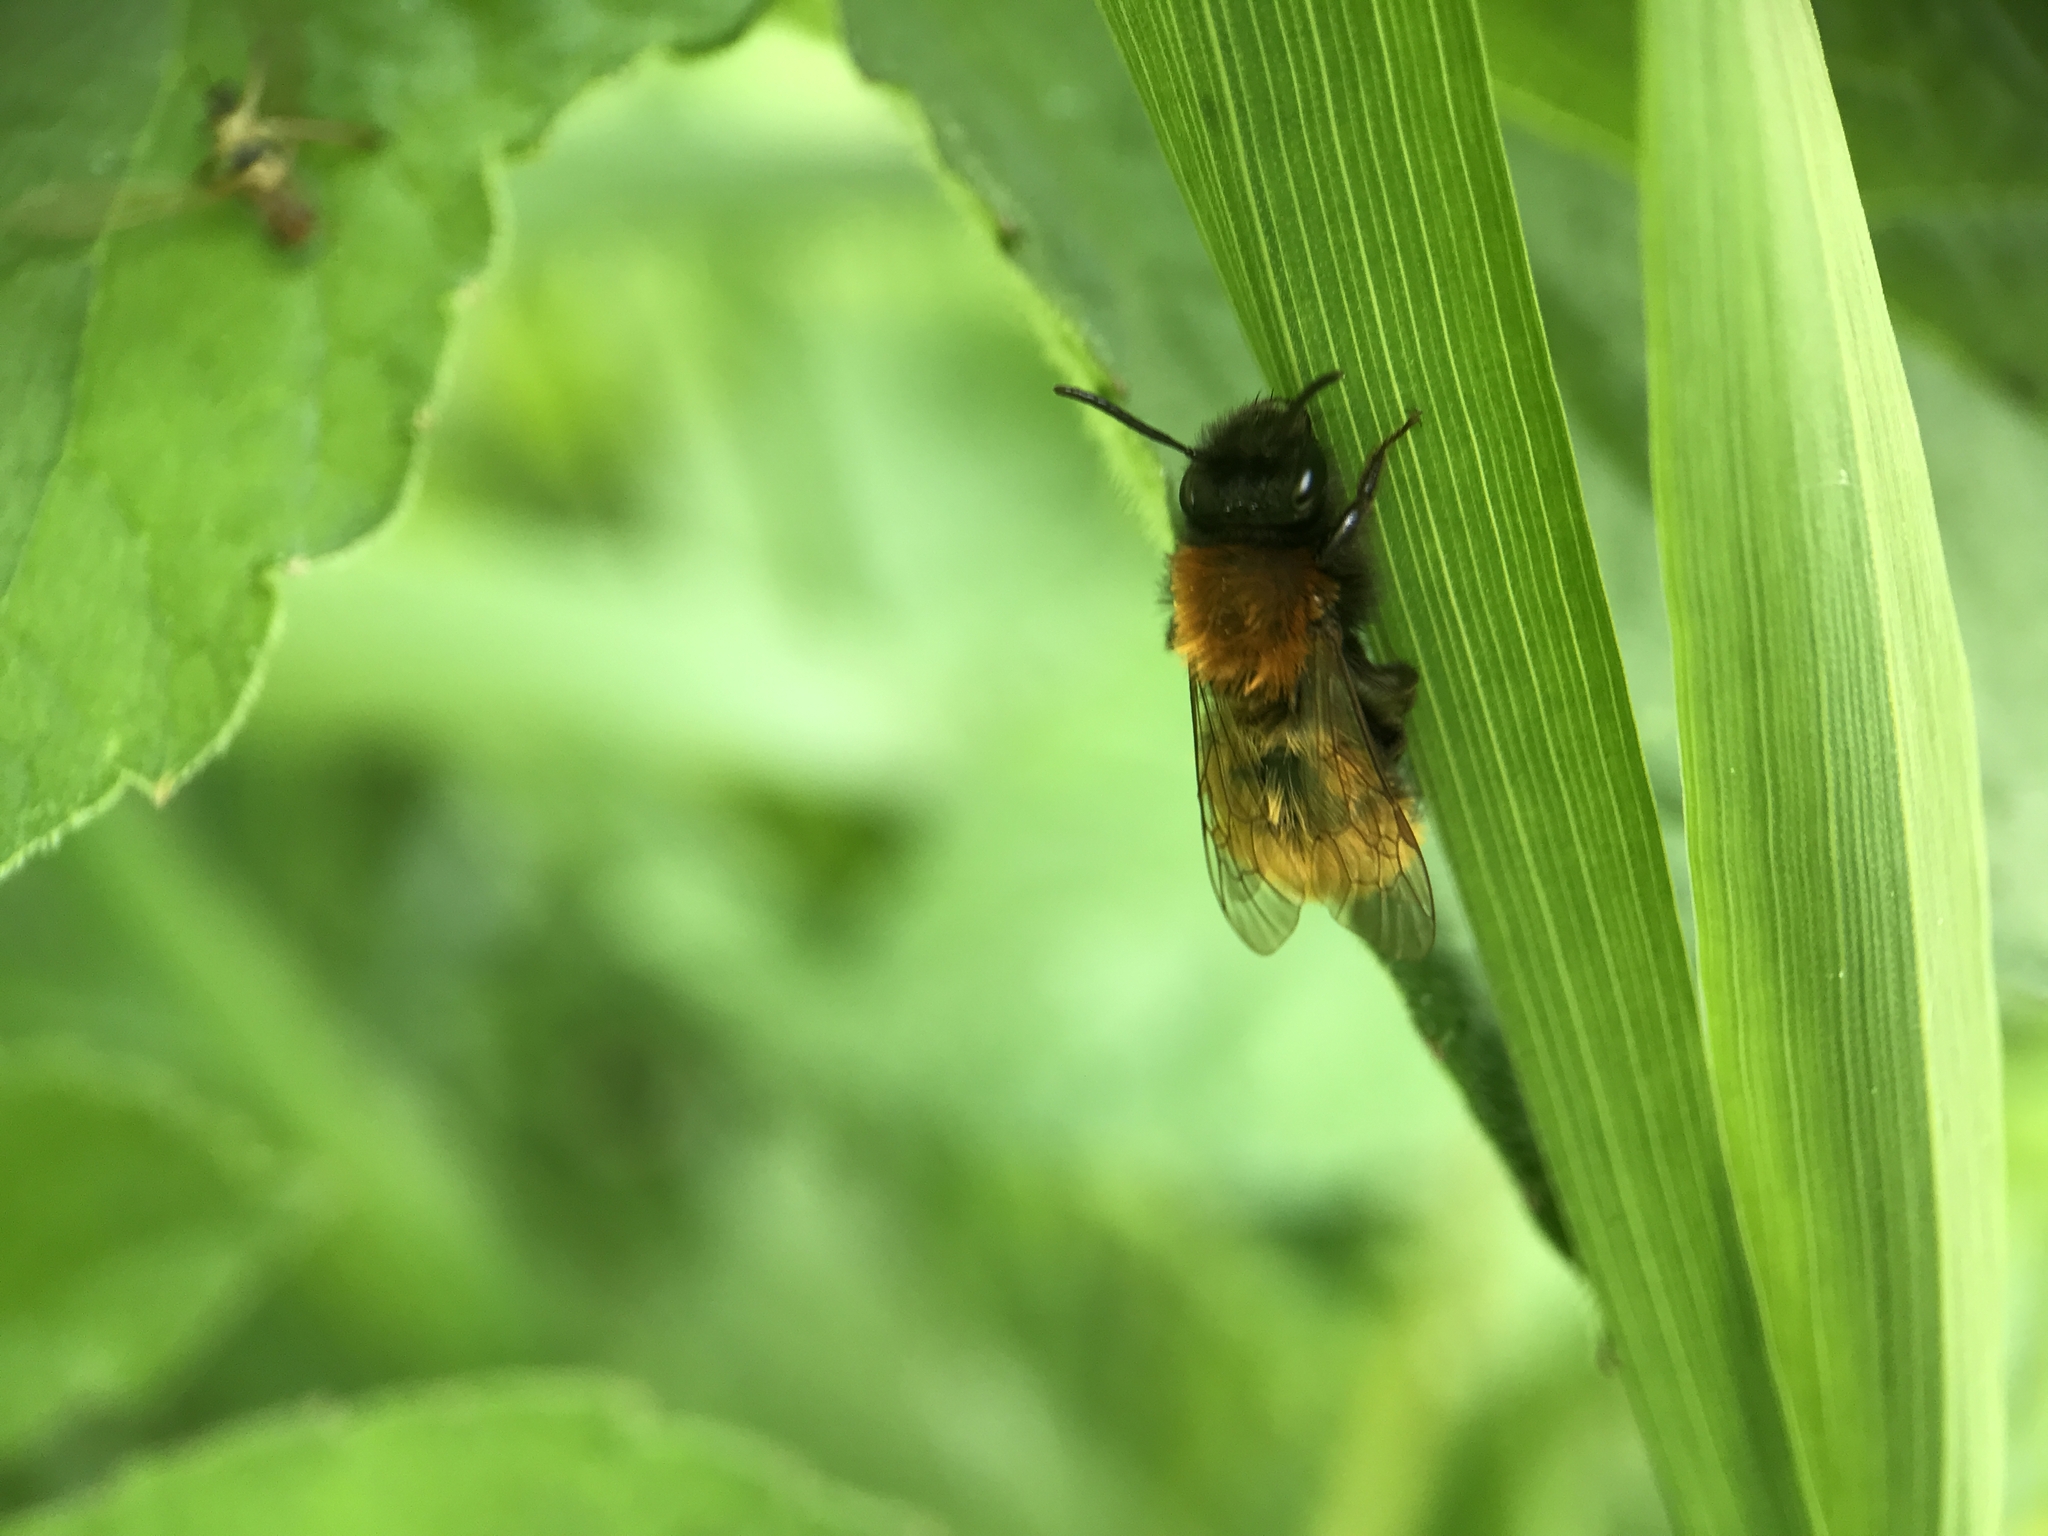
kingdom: Animalia
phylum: Arthropoda
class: Insecta
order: Hymenoptera
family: Andrenidae
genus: Andrena
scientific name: Andrena fulva
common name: Tawny mining bee
